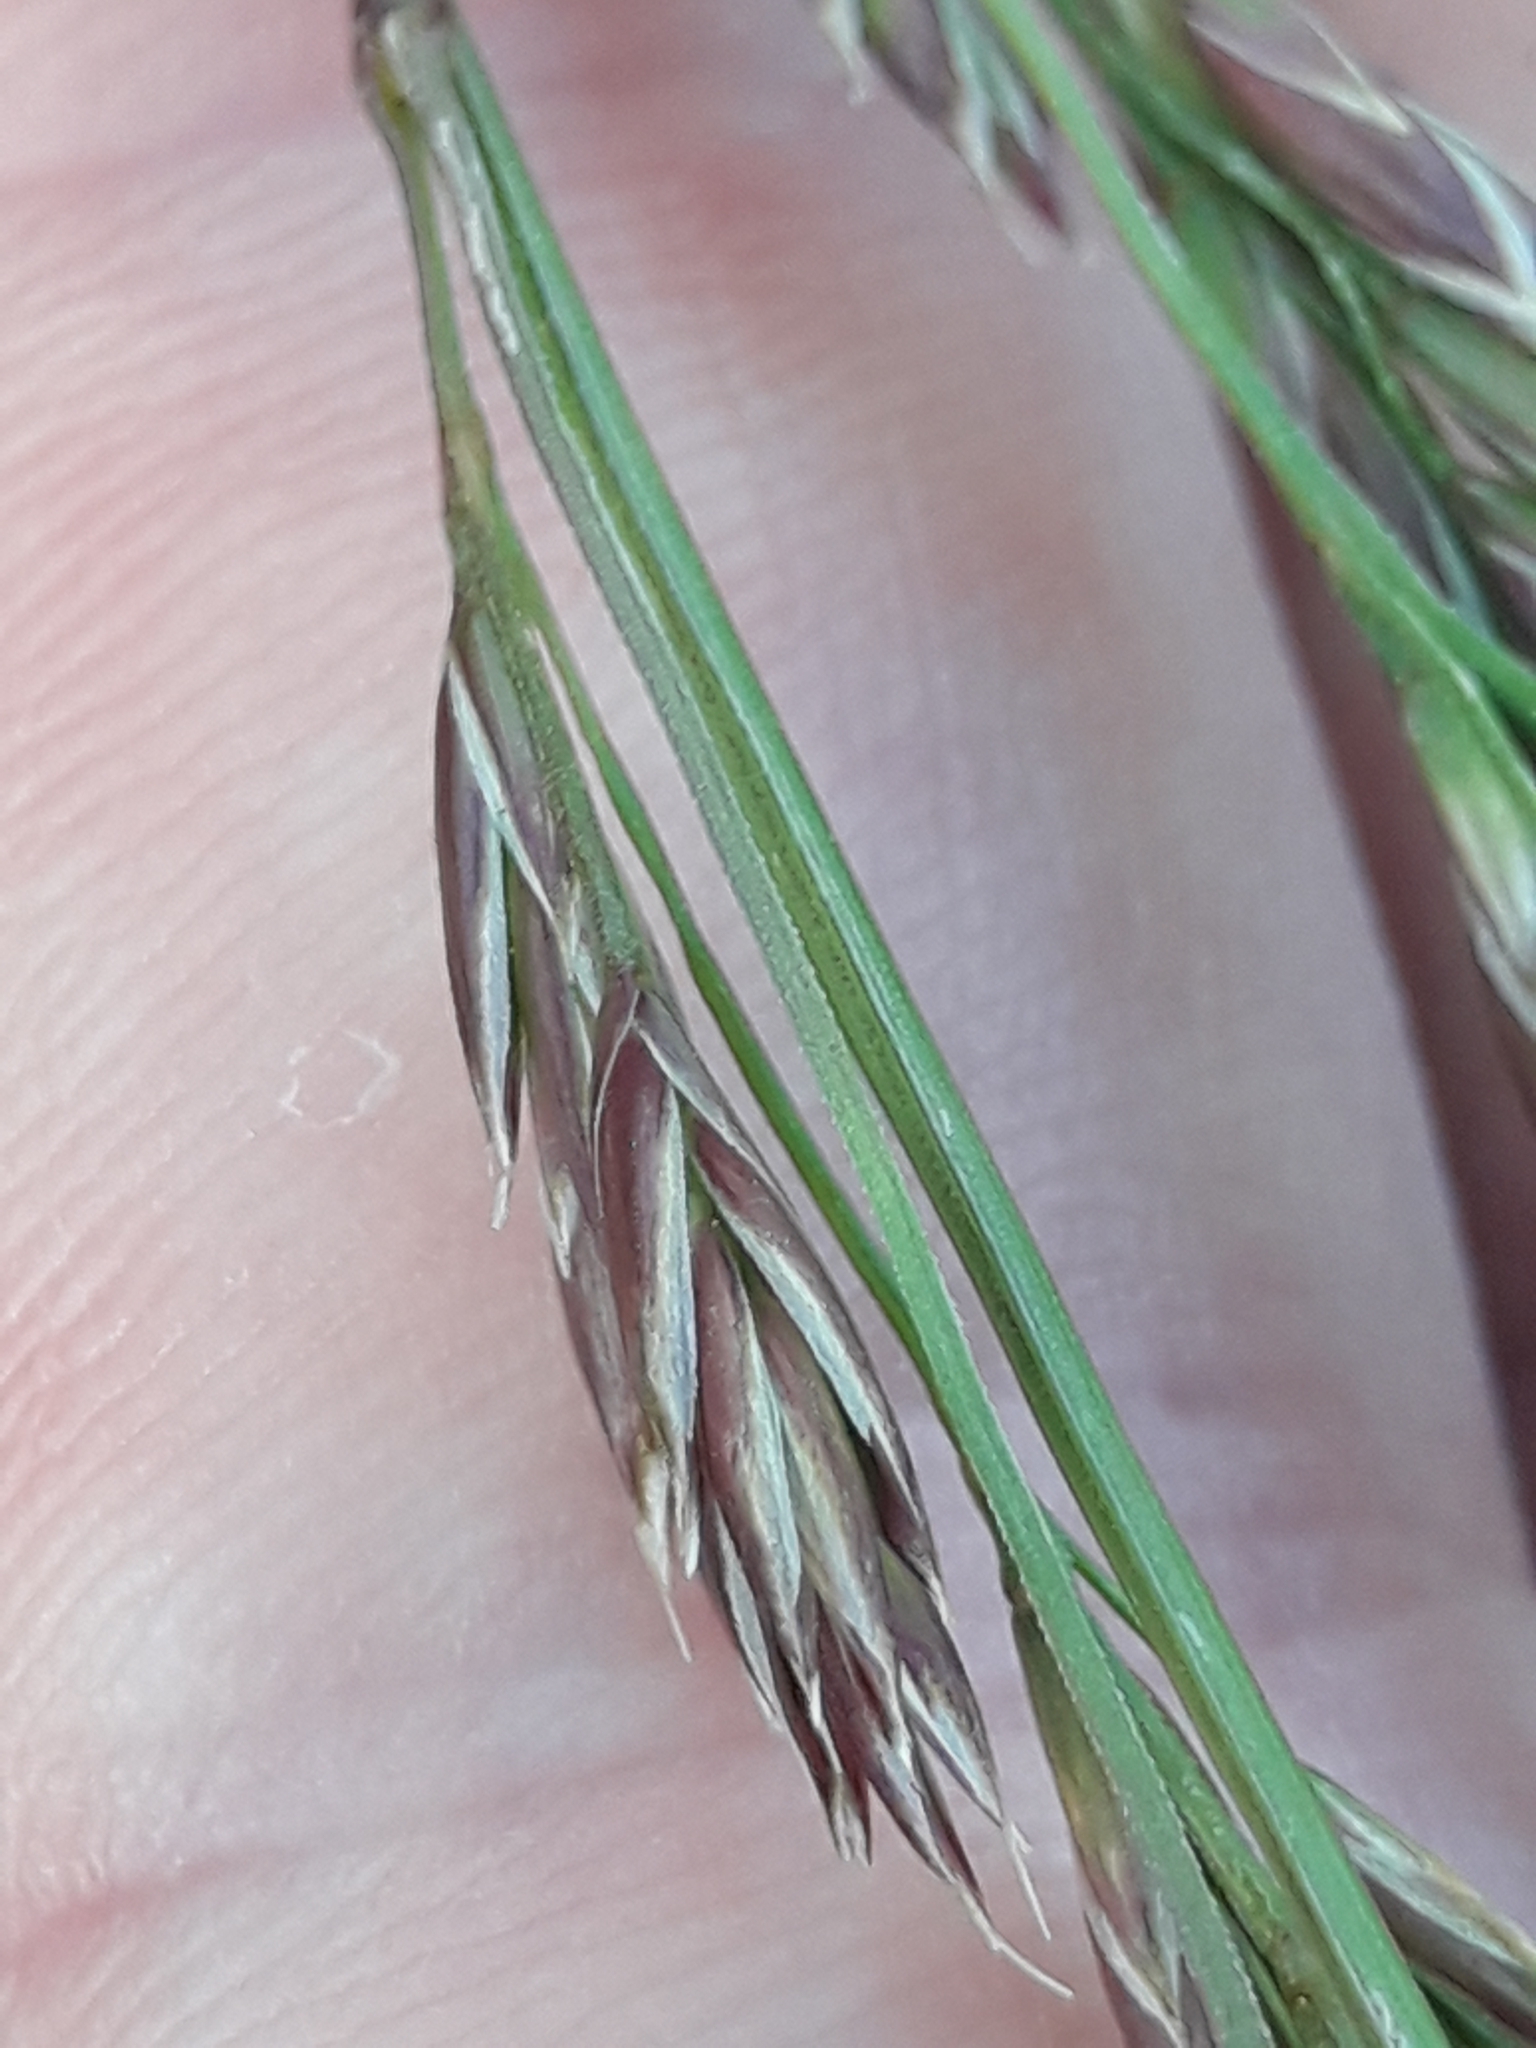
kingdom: Plantae
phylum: Tracheophyta
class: Liliopsida
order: Poales
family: Poaceae
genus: Lolium
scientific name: Lolium arundinaceum
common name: Reed fescue
